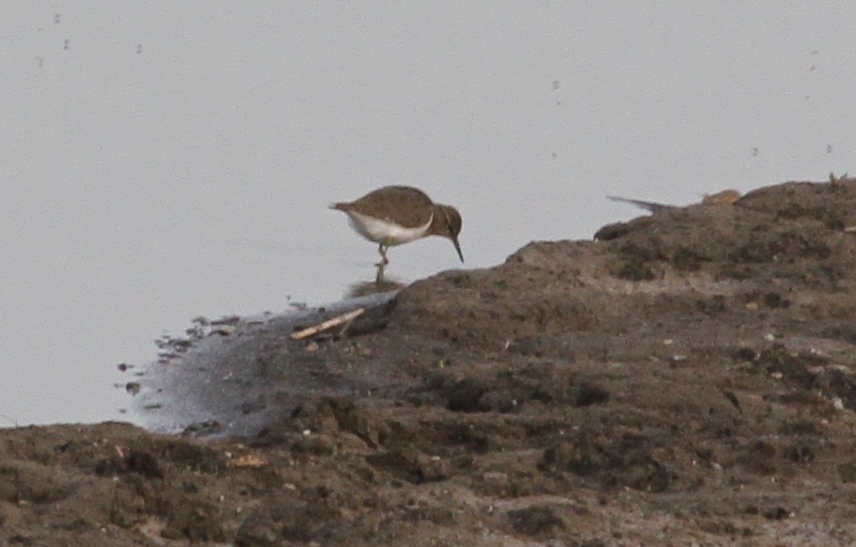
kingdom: Animalia
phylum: Chordata
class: Aves
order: Charadriiformes
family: Scolopacidae
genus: Actitis
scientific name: Actitis hypoleucos
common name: Common sandpiper
